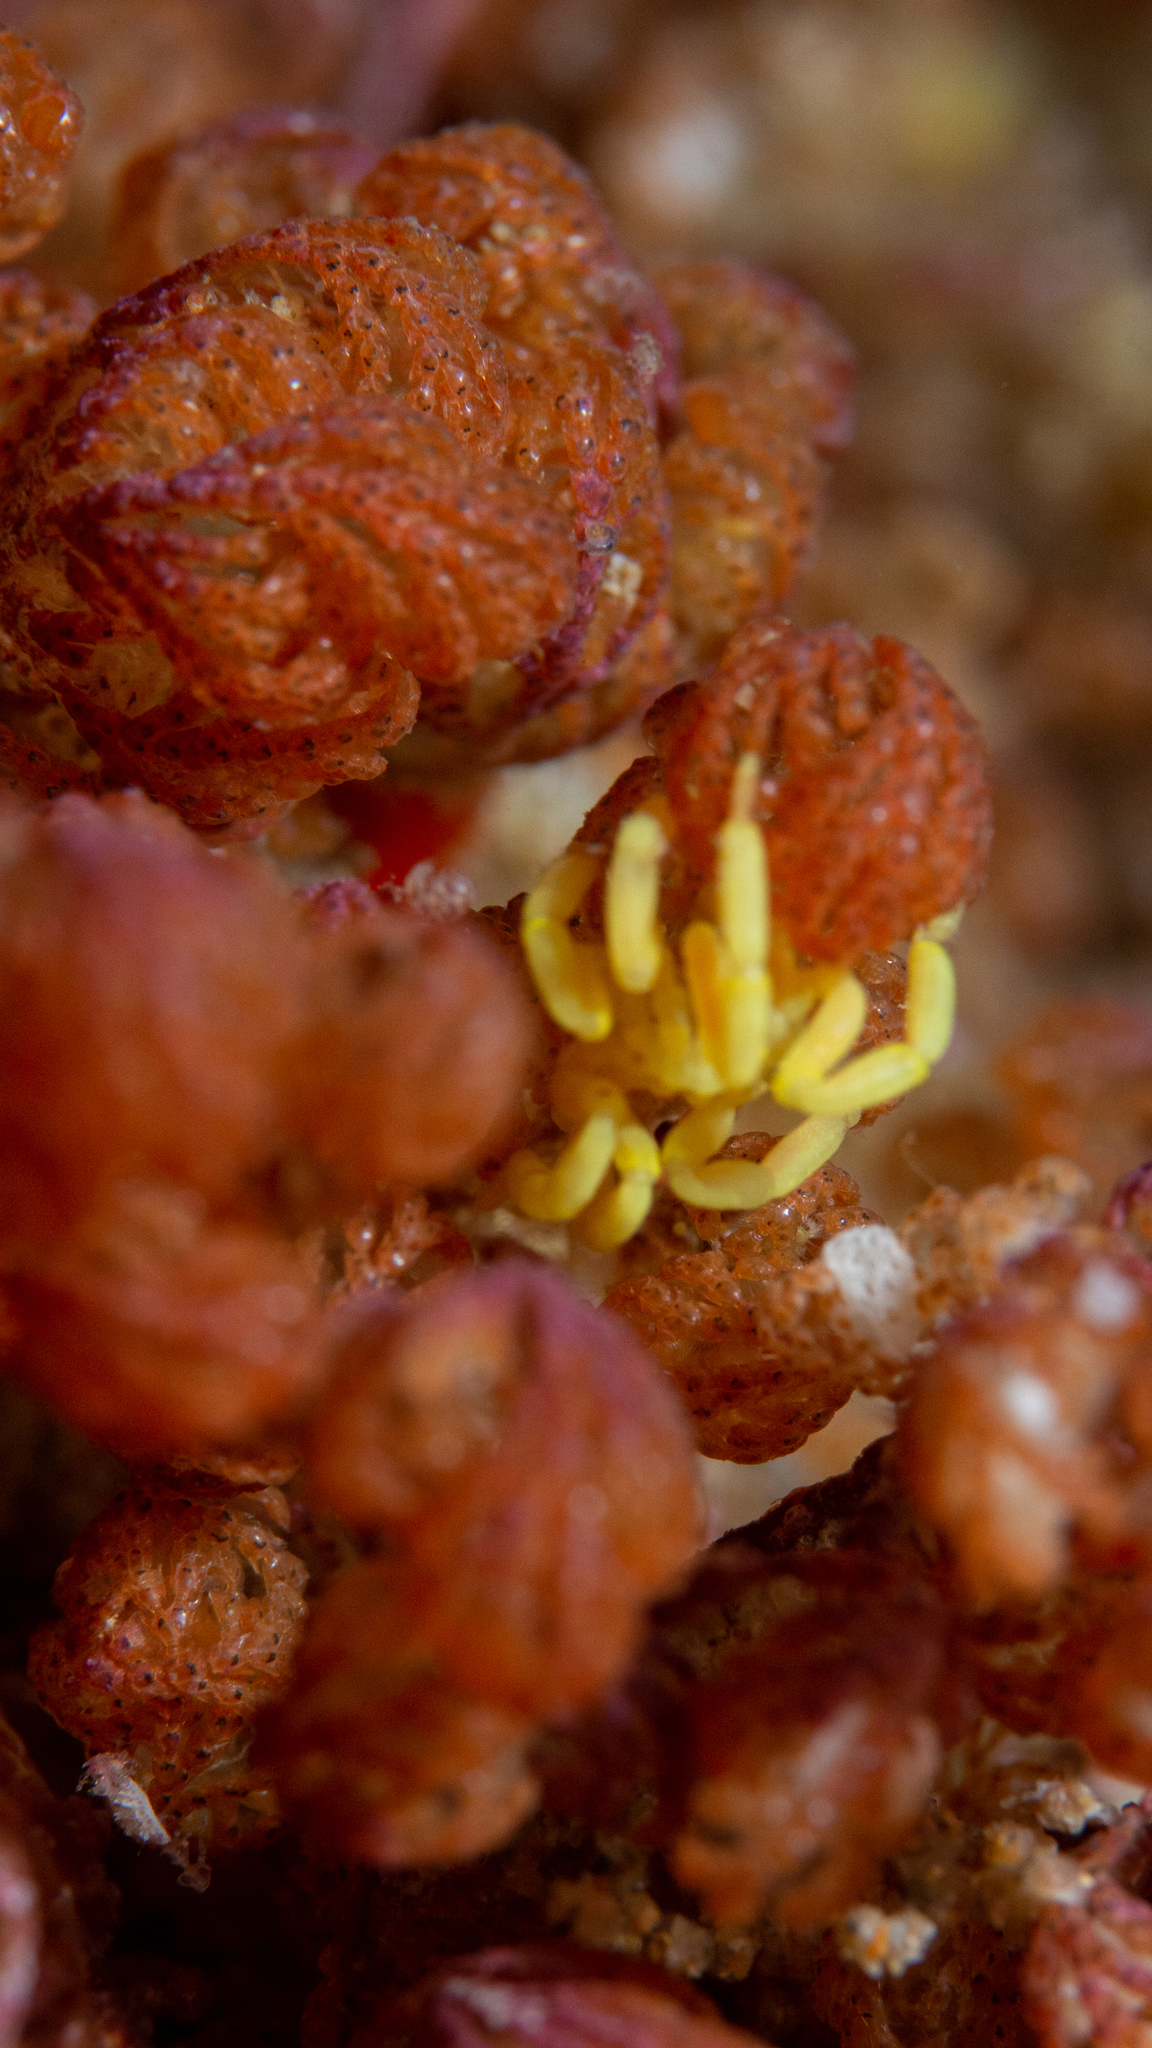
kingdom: Animalia
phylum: Arthropoda
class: Pycnogonida
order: Pantopoda
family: Callipallenidae
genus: Pallenella
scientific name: Pallenella ambigua
